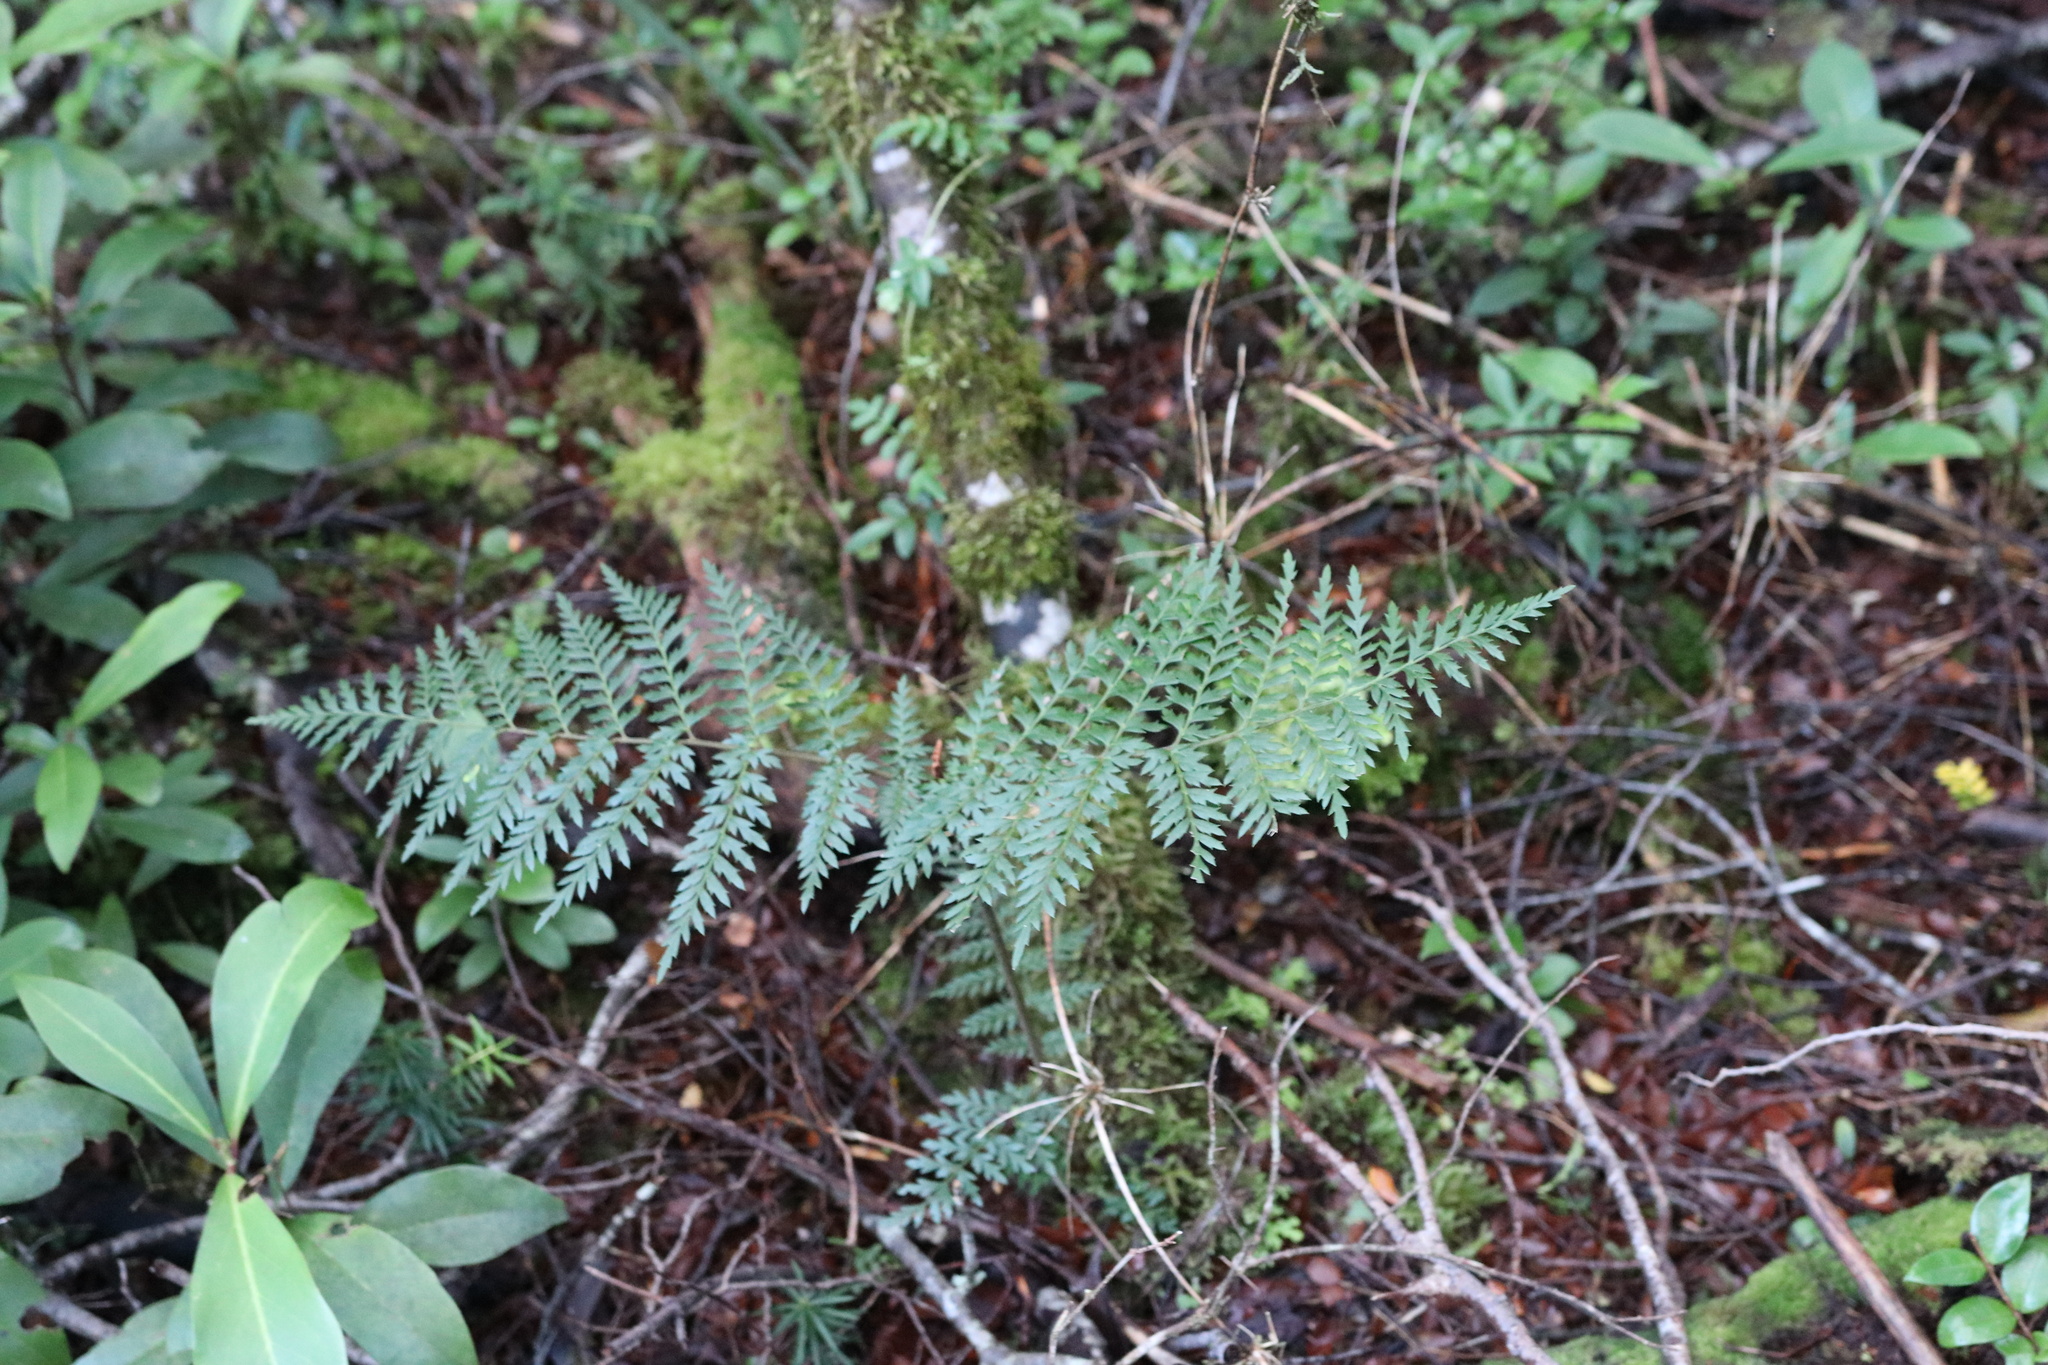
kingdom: Plantae
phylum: Tracheophyta
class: Magnoliopsida
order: Proteales
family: Proteaceae
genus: Lomatia
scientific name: Lomatia ferruginea
